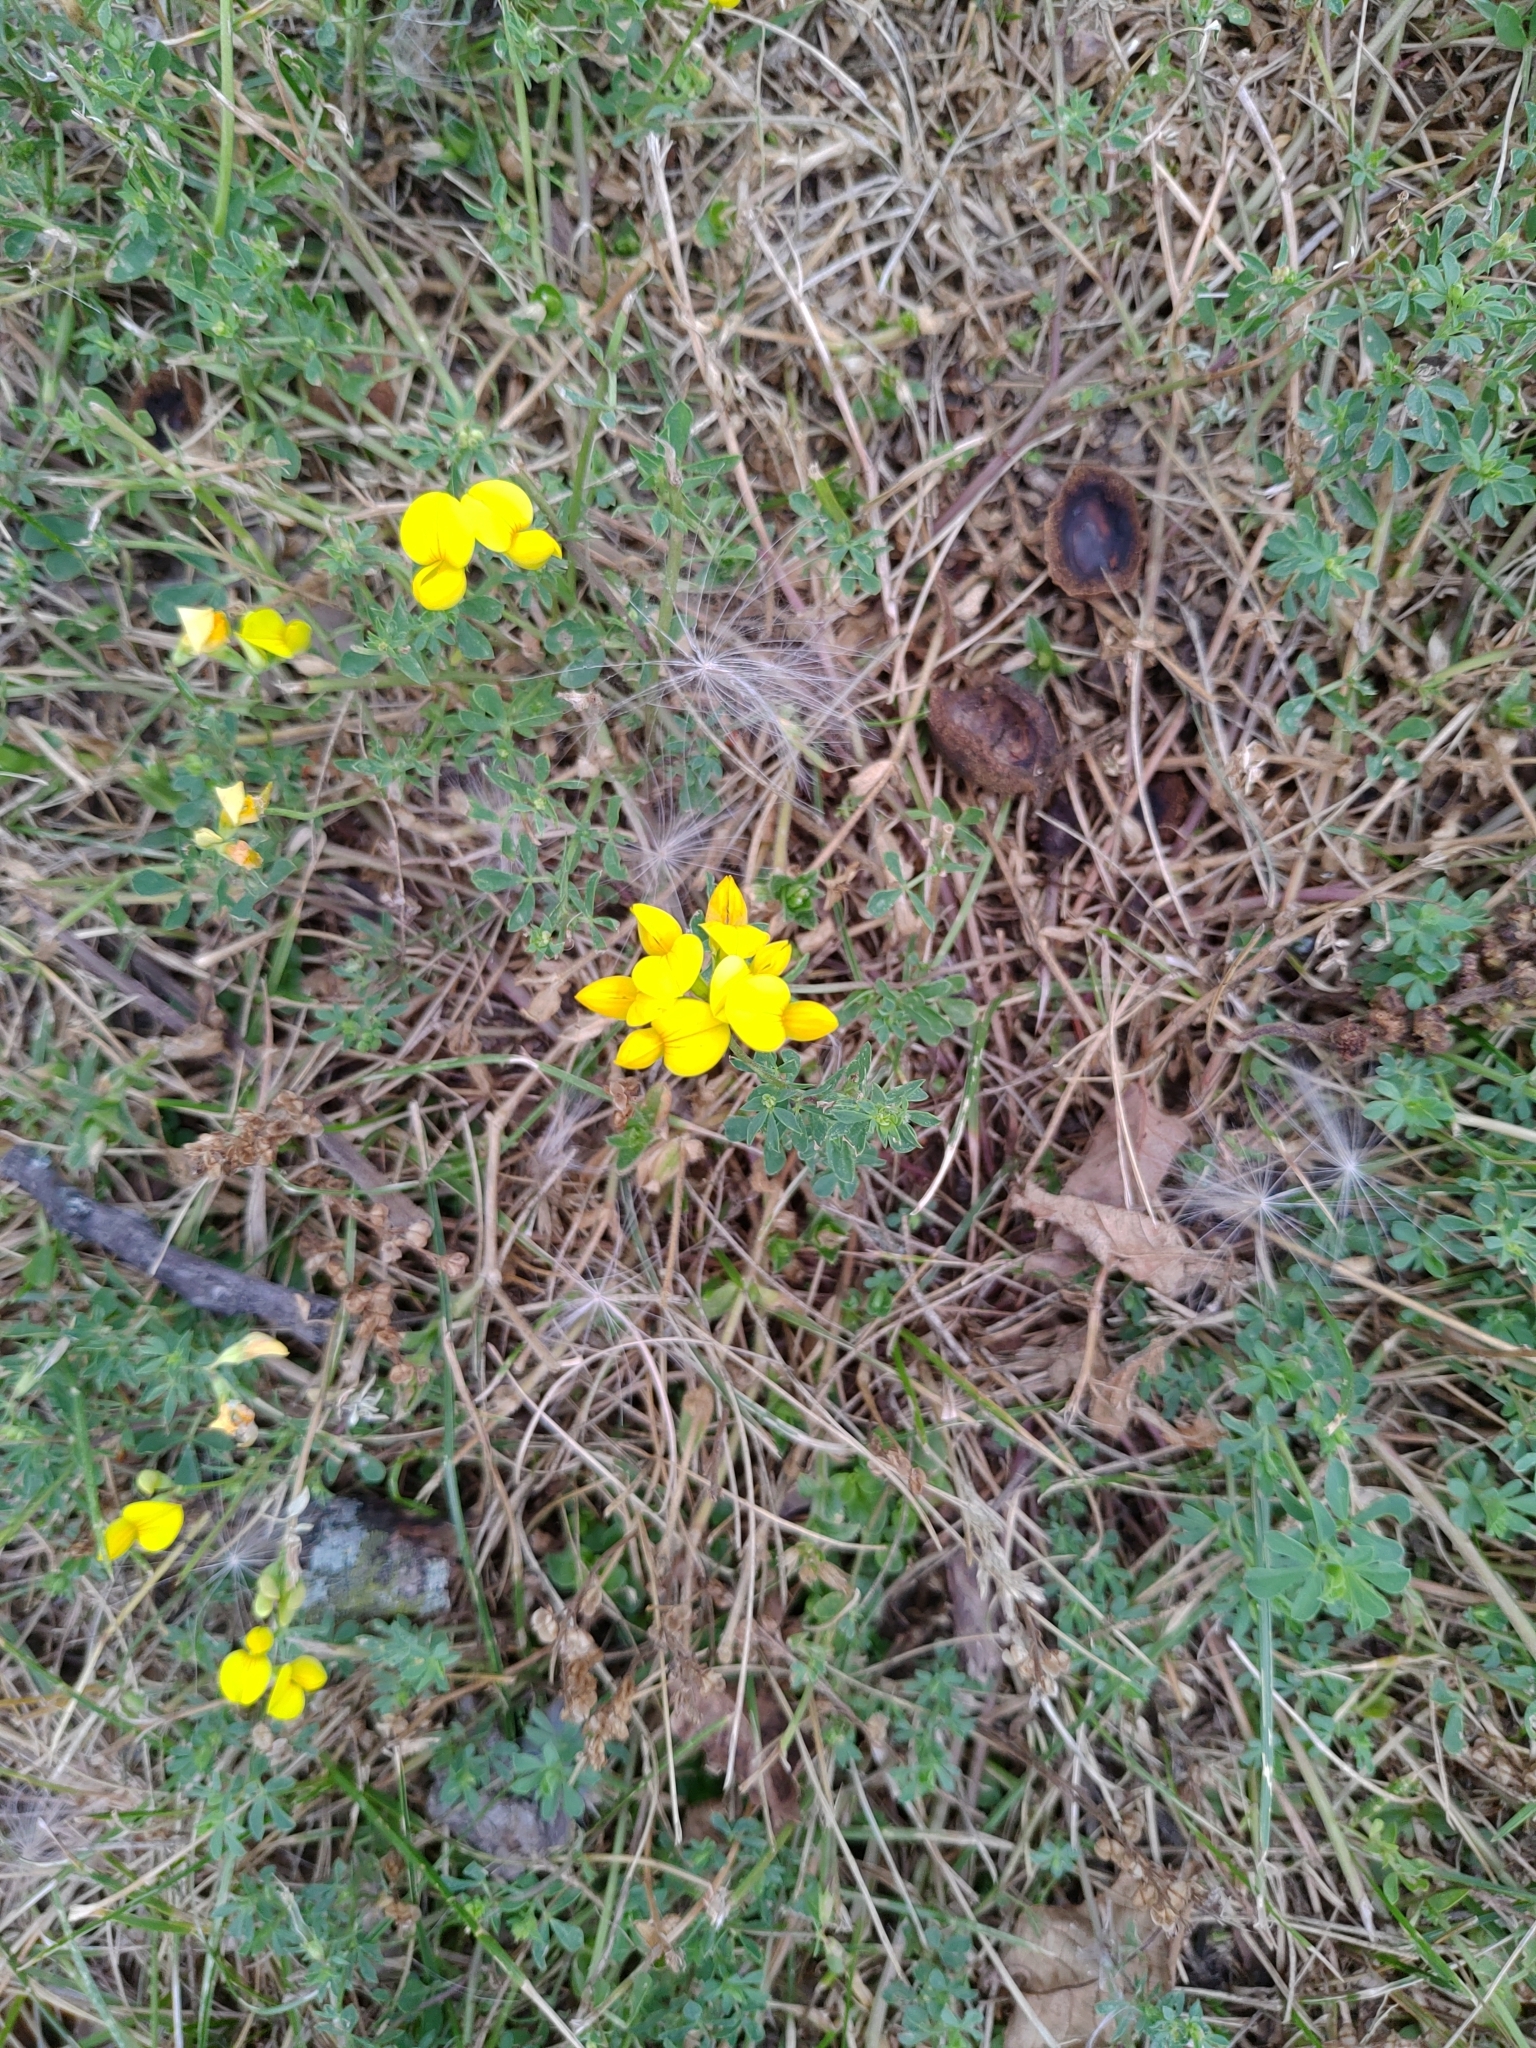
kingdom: Plantae
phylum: Tracheophyta
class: Magnoliopsida
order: Fabales
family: Fabaceae
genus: Lotus
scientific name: Lotus corniculatus
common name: Common bird's-foot-trefoil
